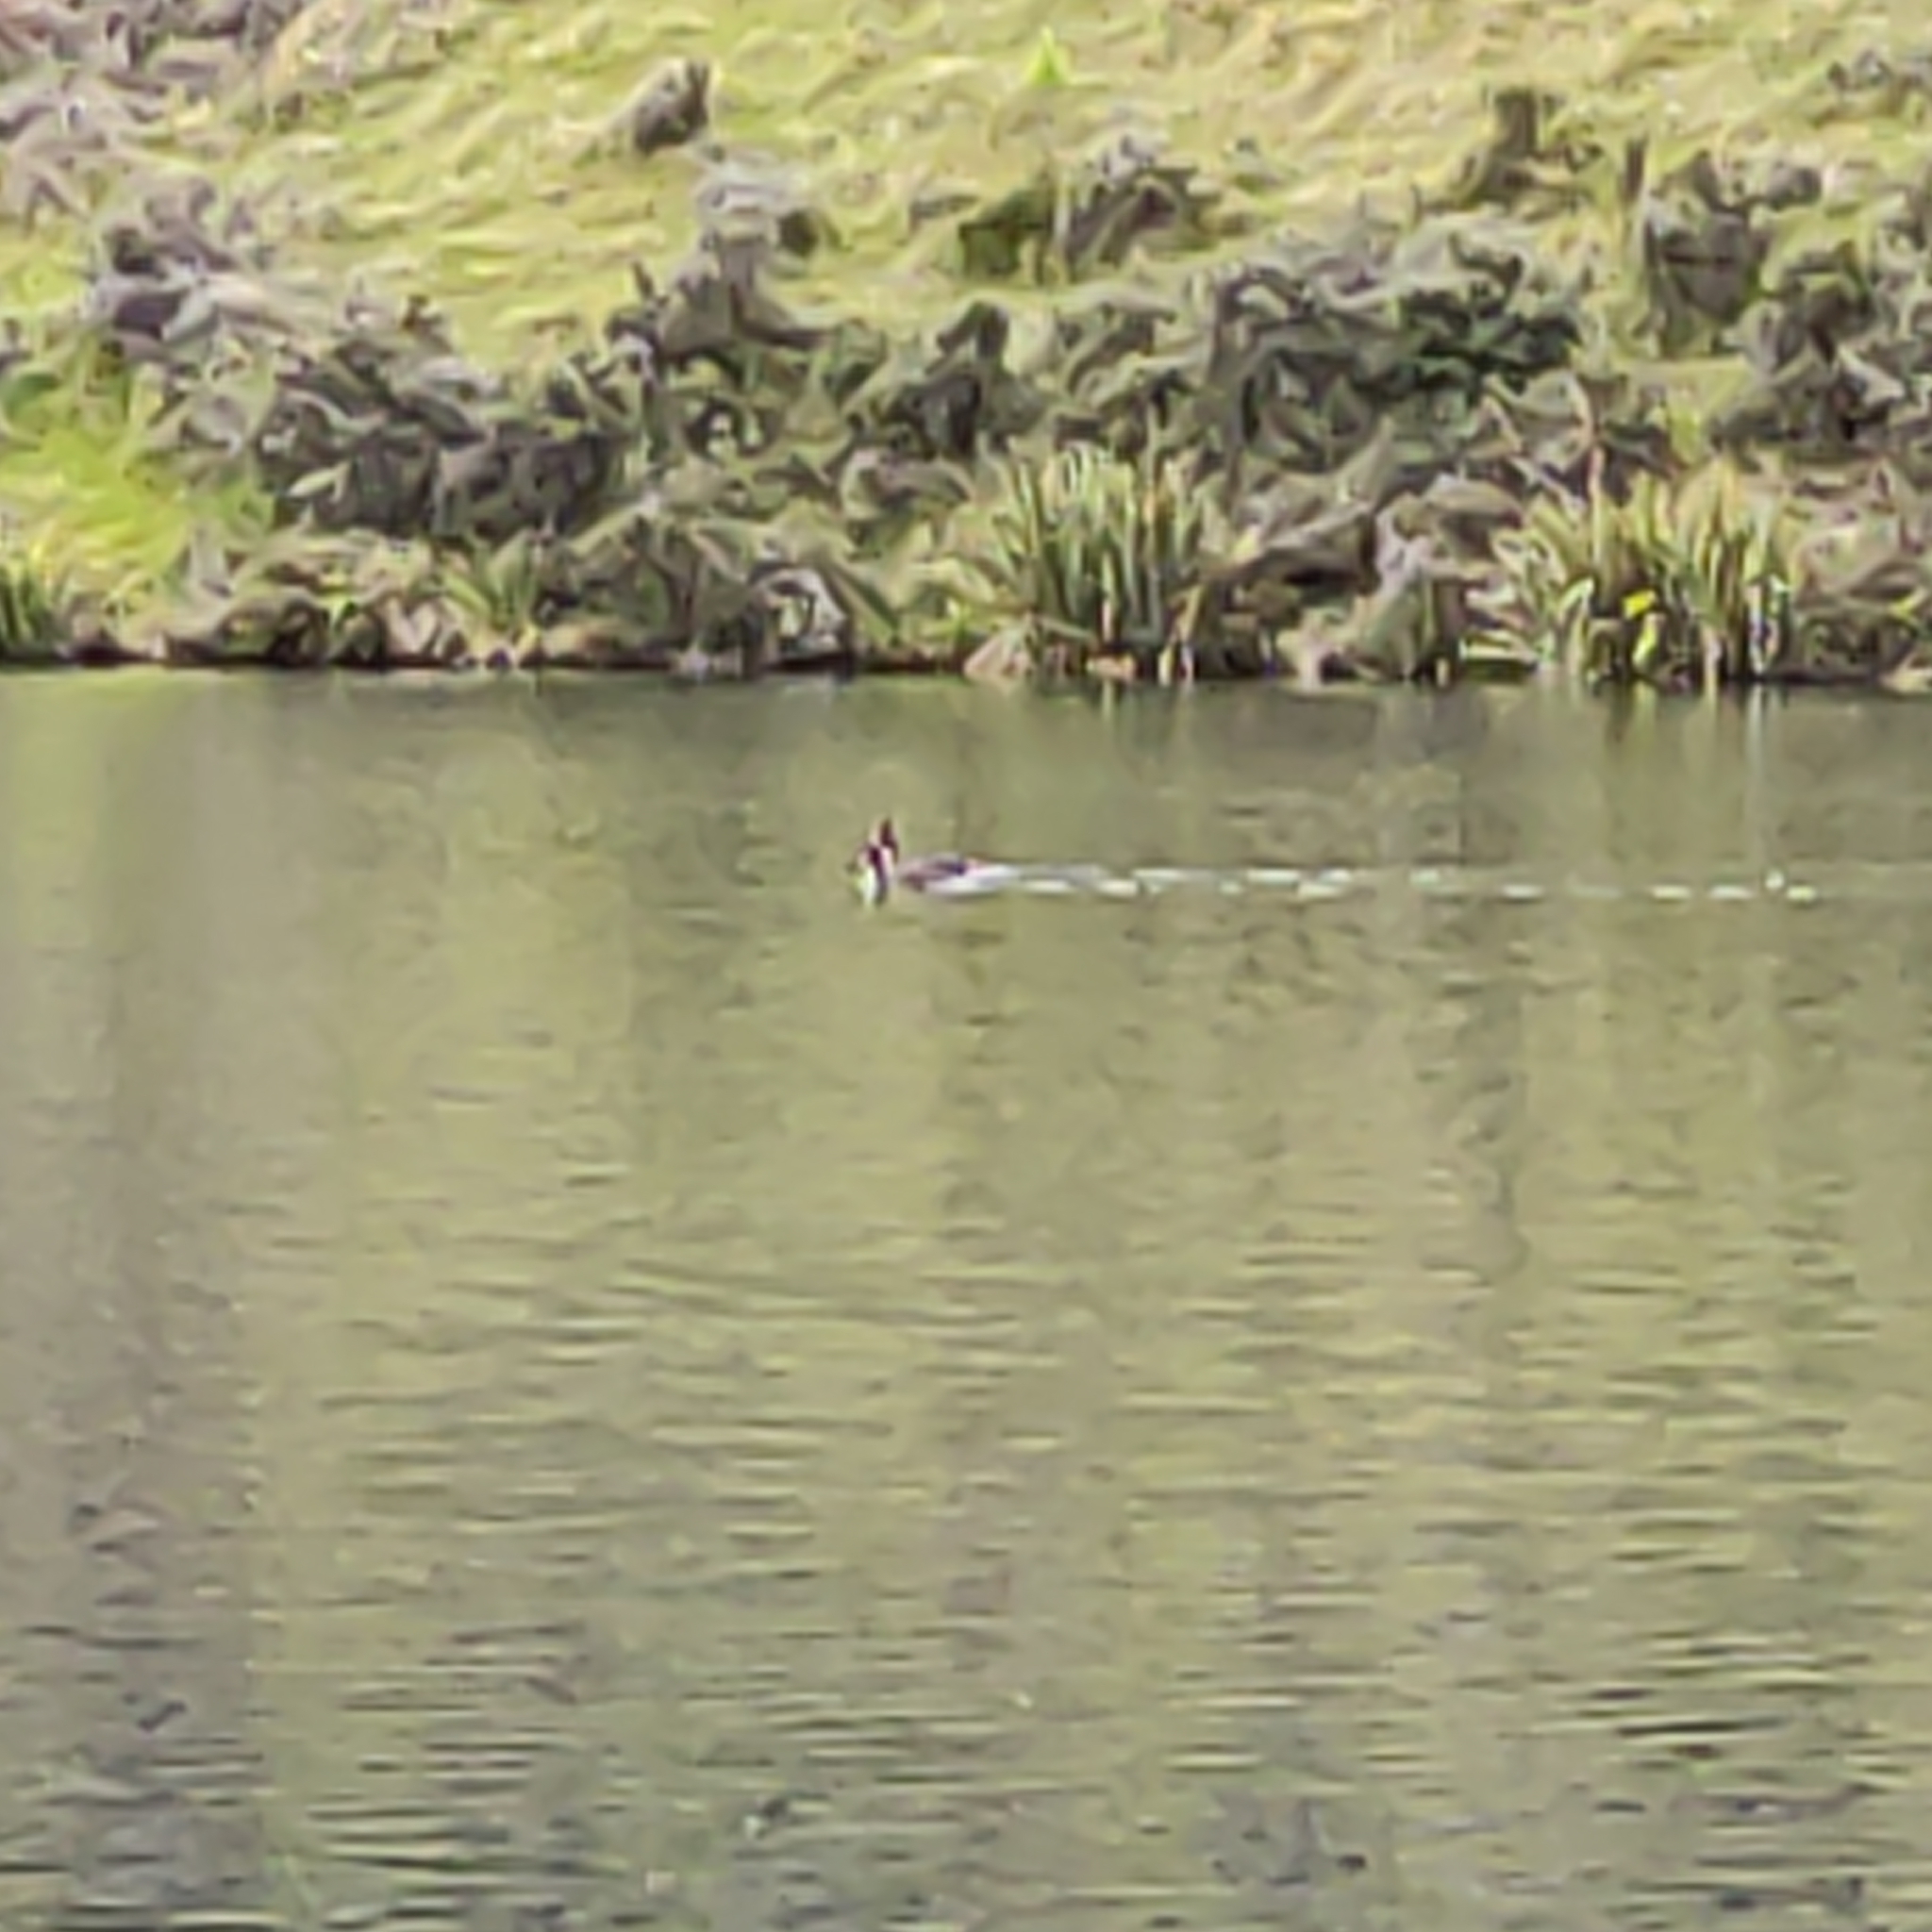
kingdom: Animalia
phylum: Chordata
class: Aves
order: Podicipediformes
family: Podicipedidae
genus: Podiceps
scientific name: Podiceps cristatus
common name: Great crested grebe
